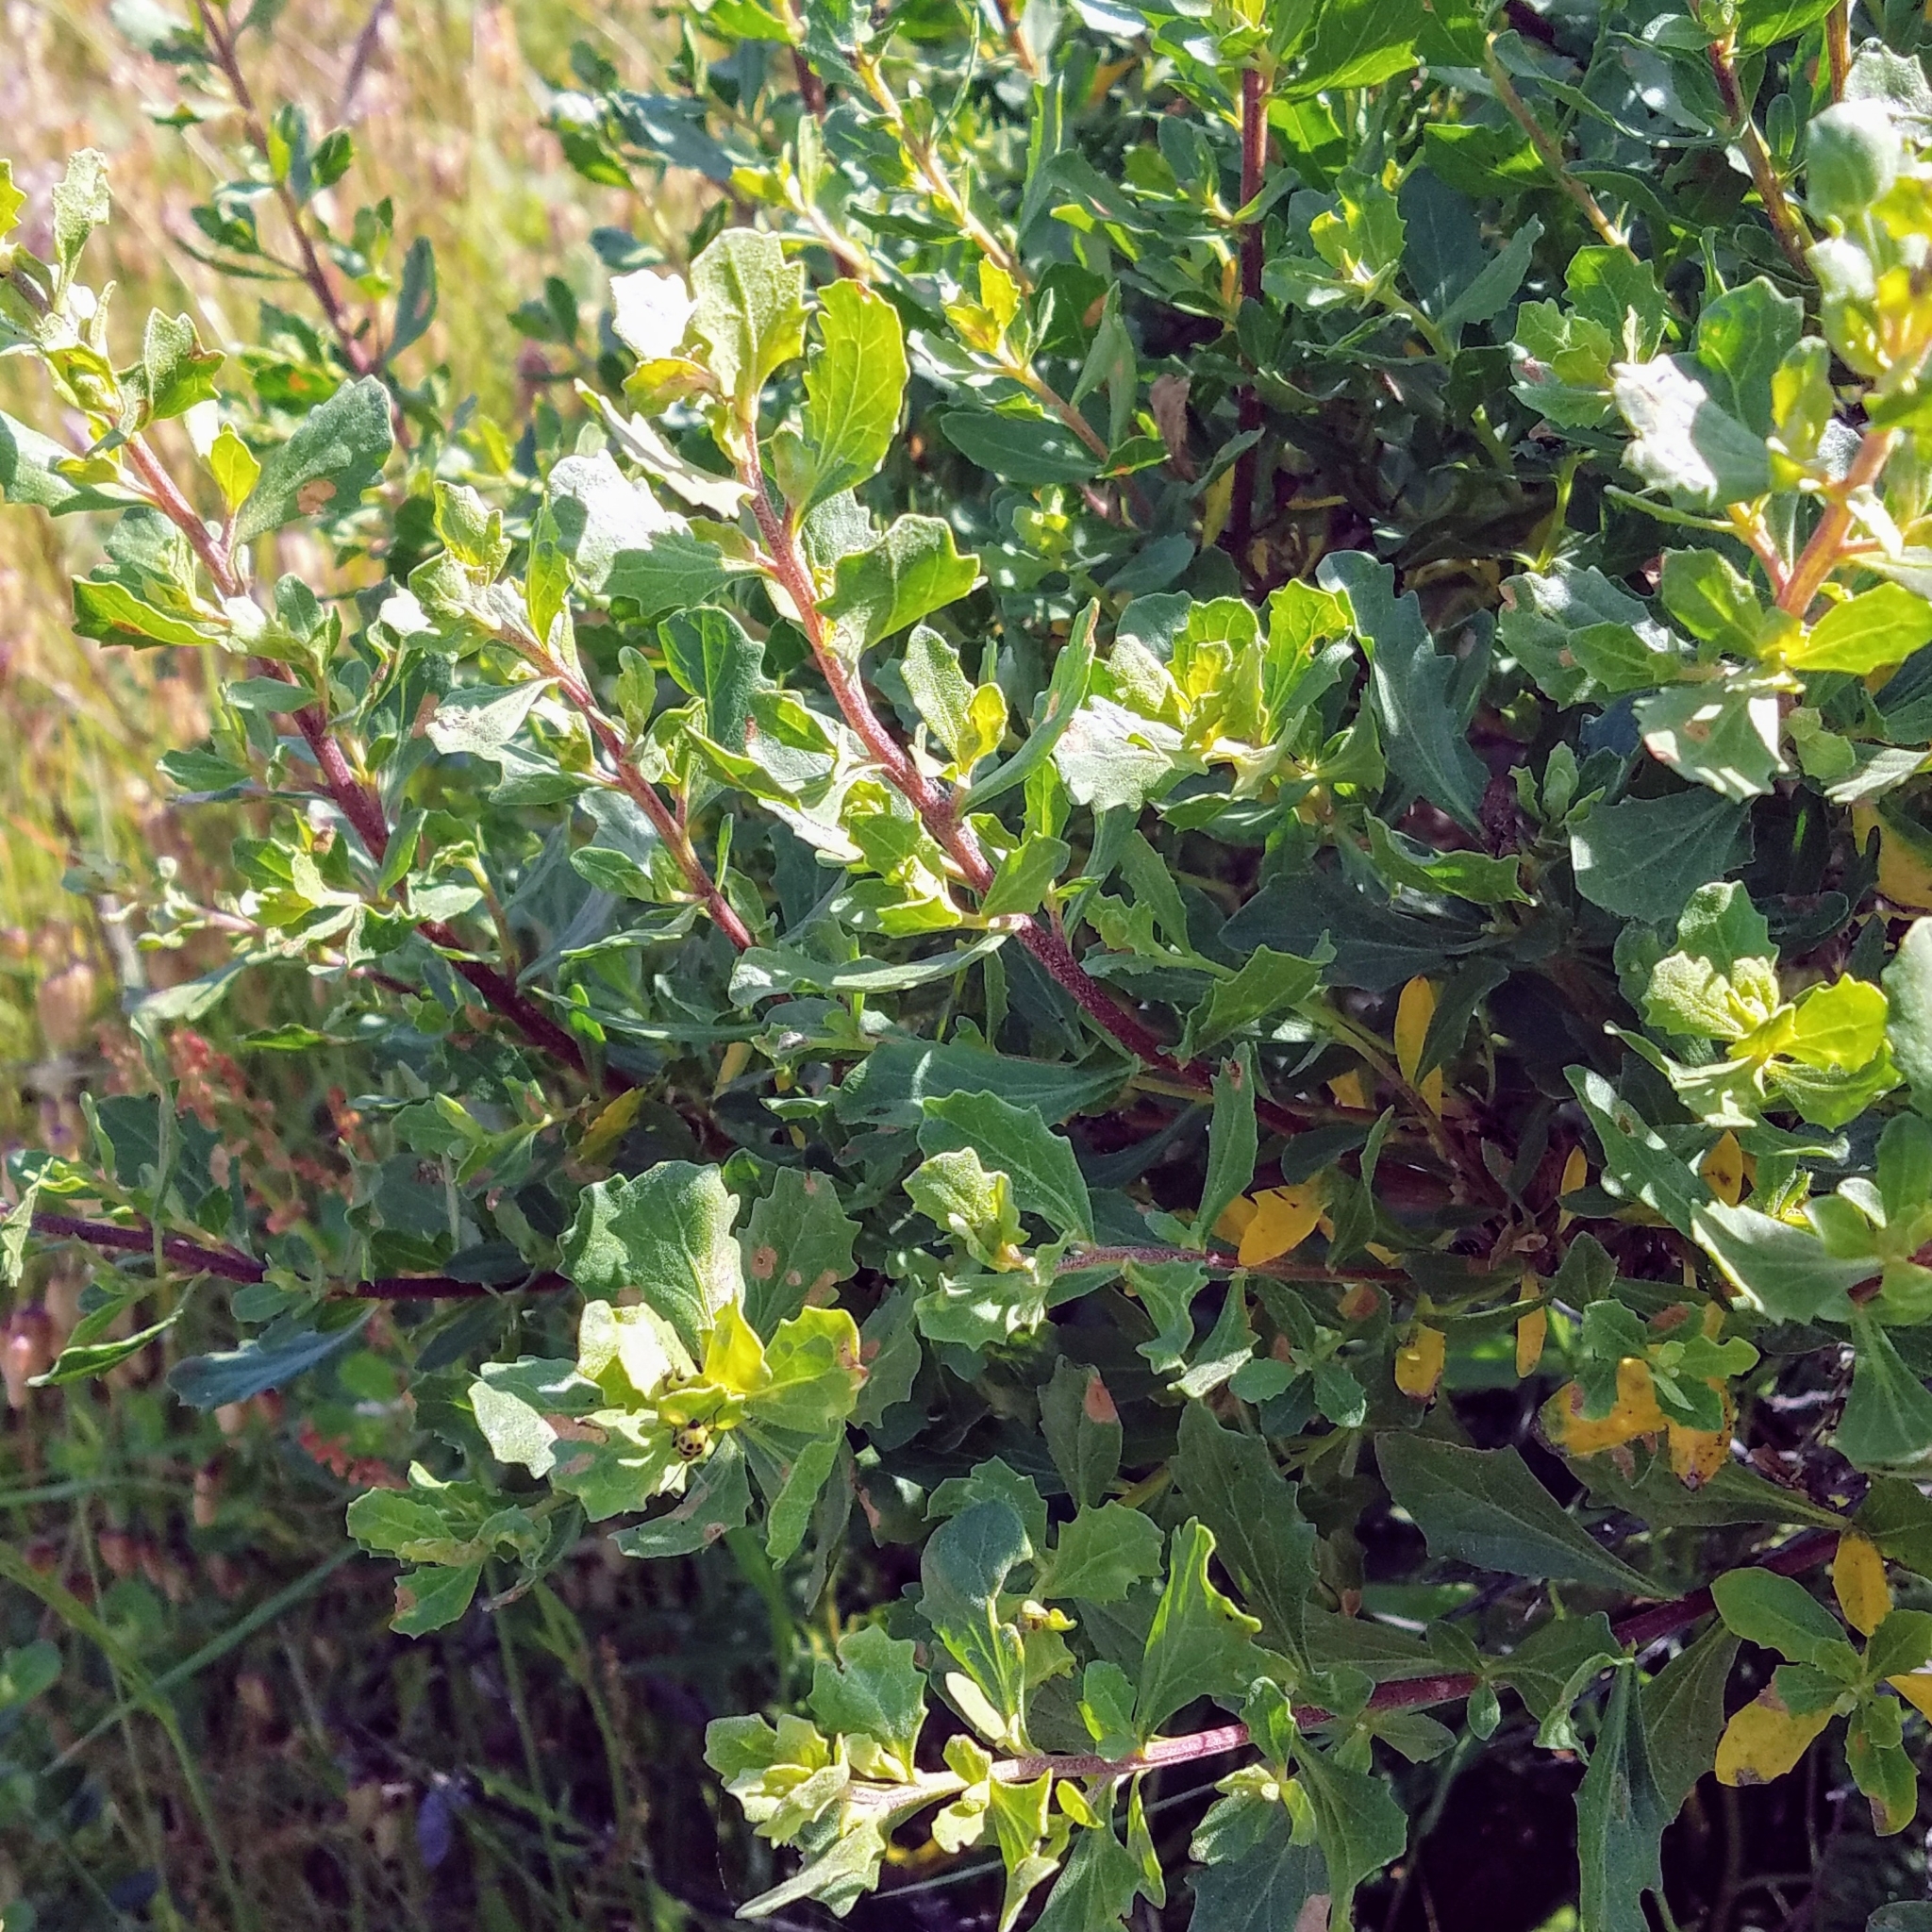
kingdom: Plantae
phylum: Tracheophyta
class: Magnoliopsida
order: Asterales
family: Asteraceae
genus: Baccharis
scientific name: Baccharis pilularis
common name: Coyotebrush
